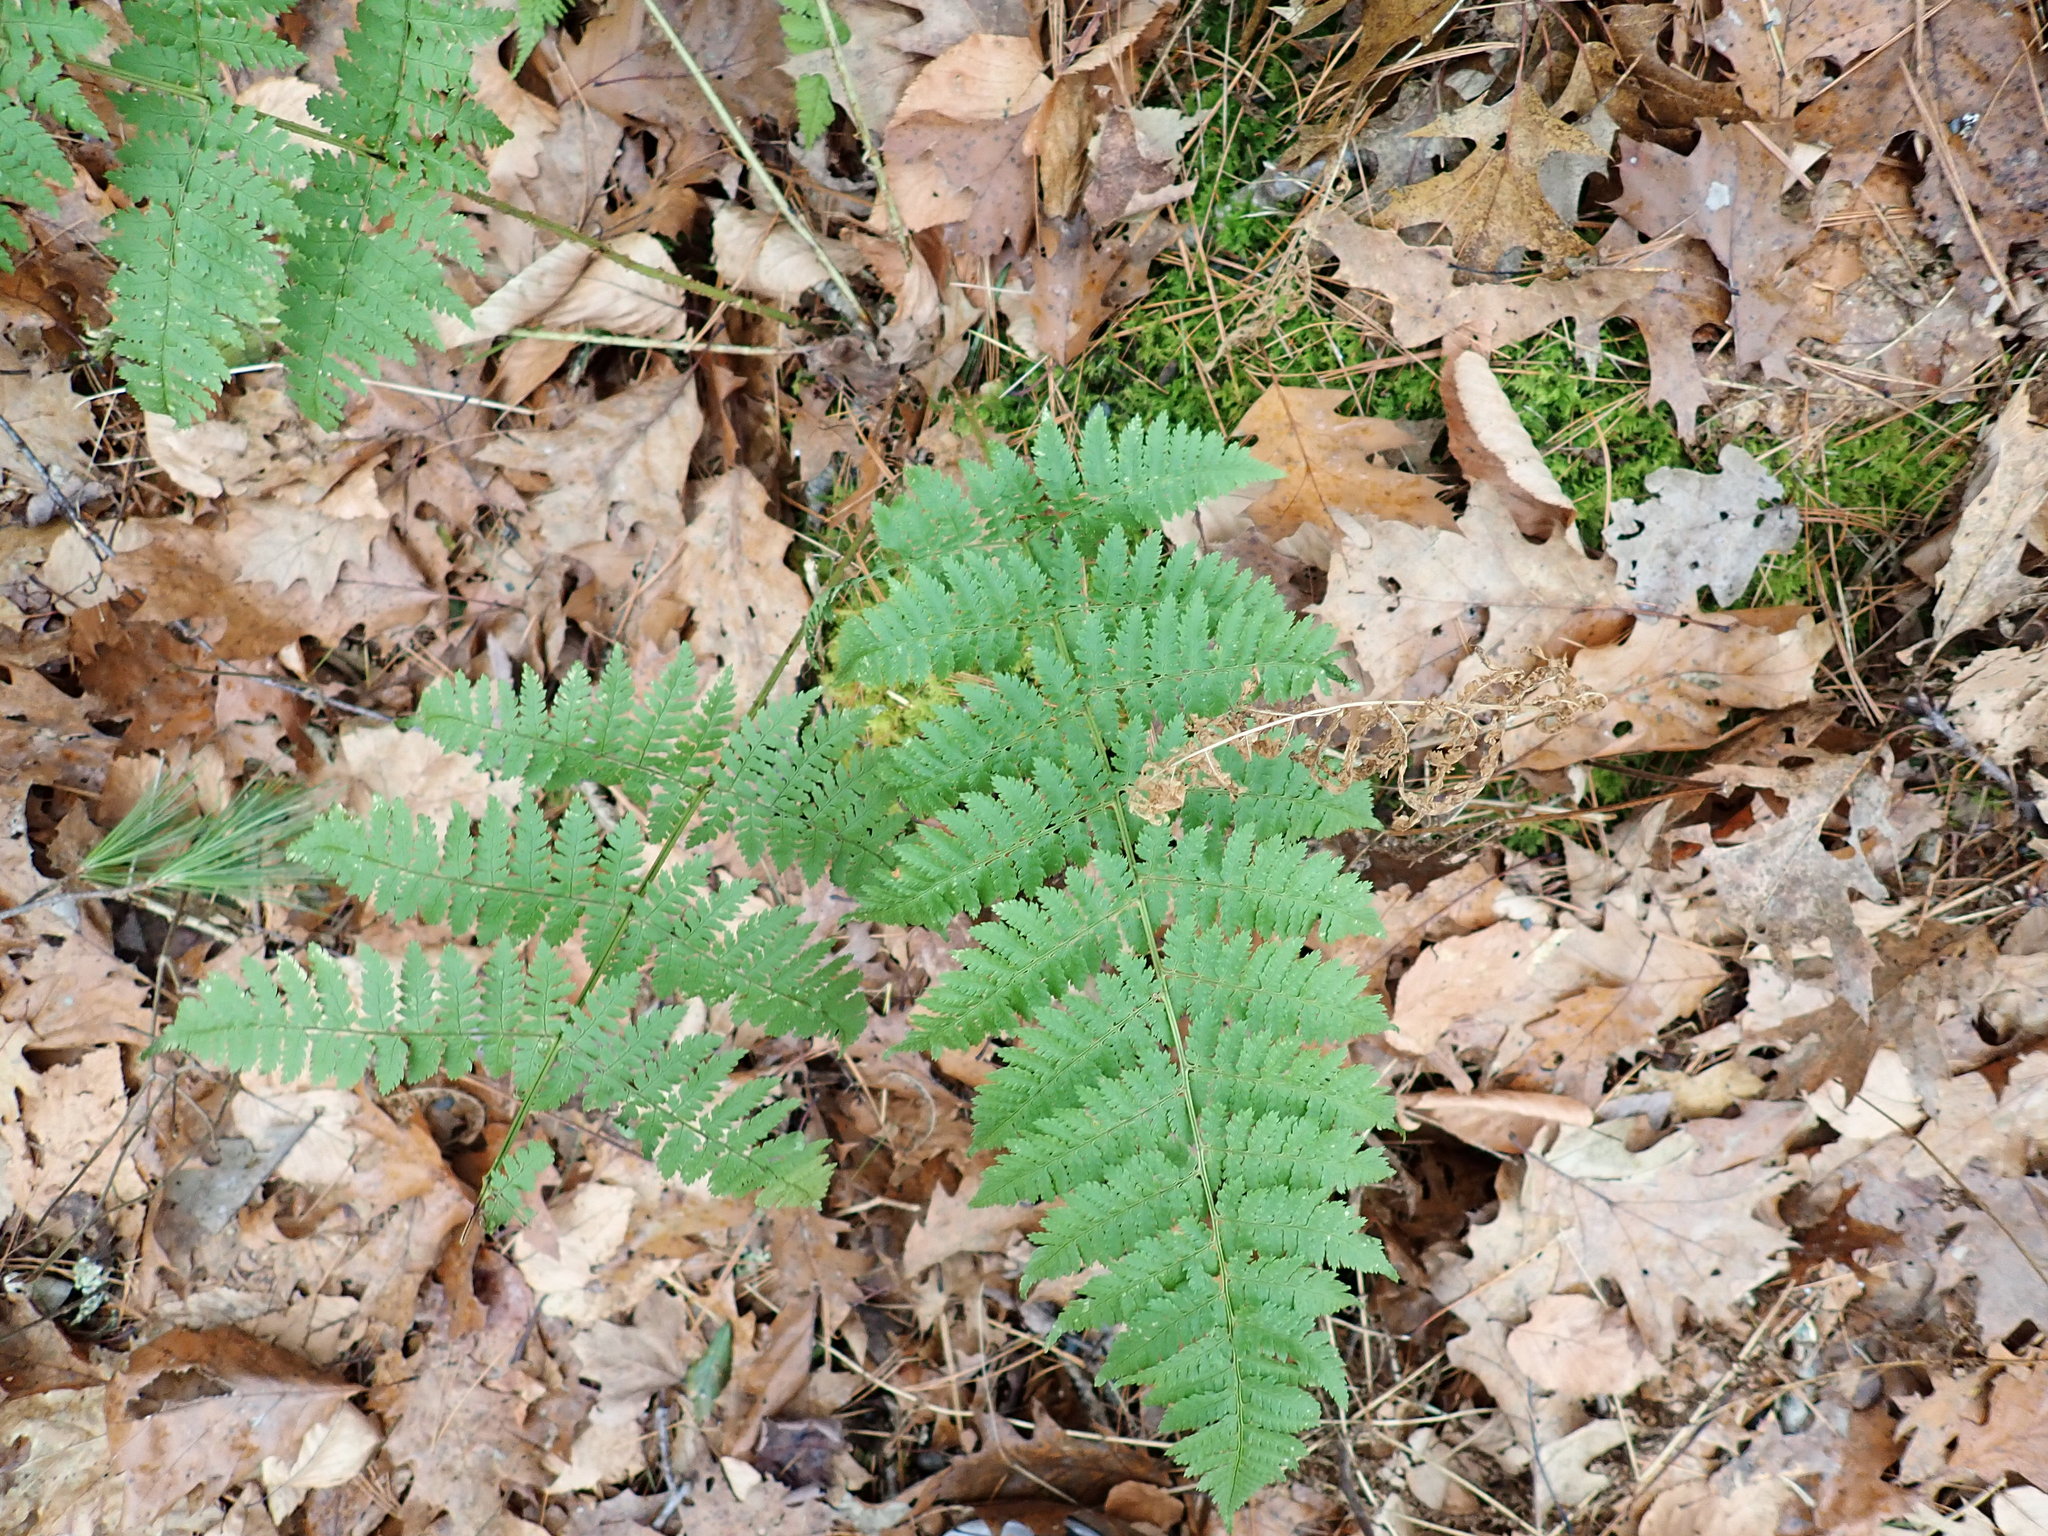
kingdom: Plantae
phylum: Tracheophyta
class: Polypodiopsida
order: Polypodiales
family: Dryopteridaceae
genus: Dryopteris
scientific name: Dryopteris intermedia
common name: Evergreen wood fern
